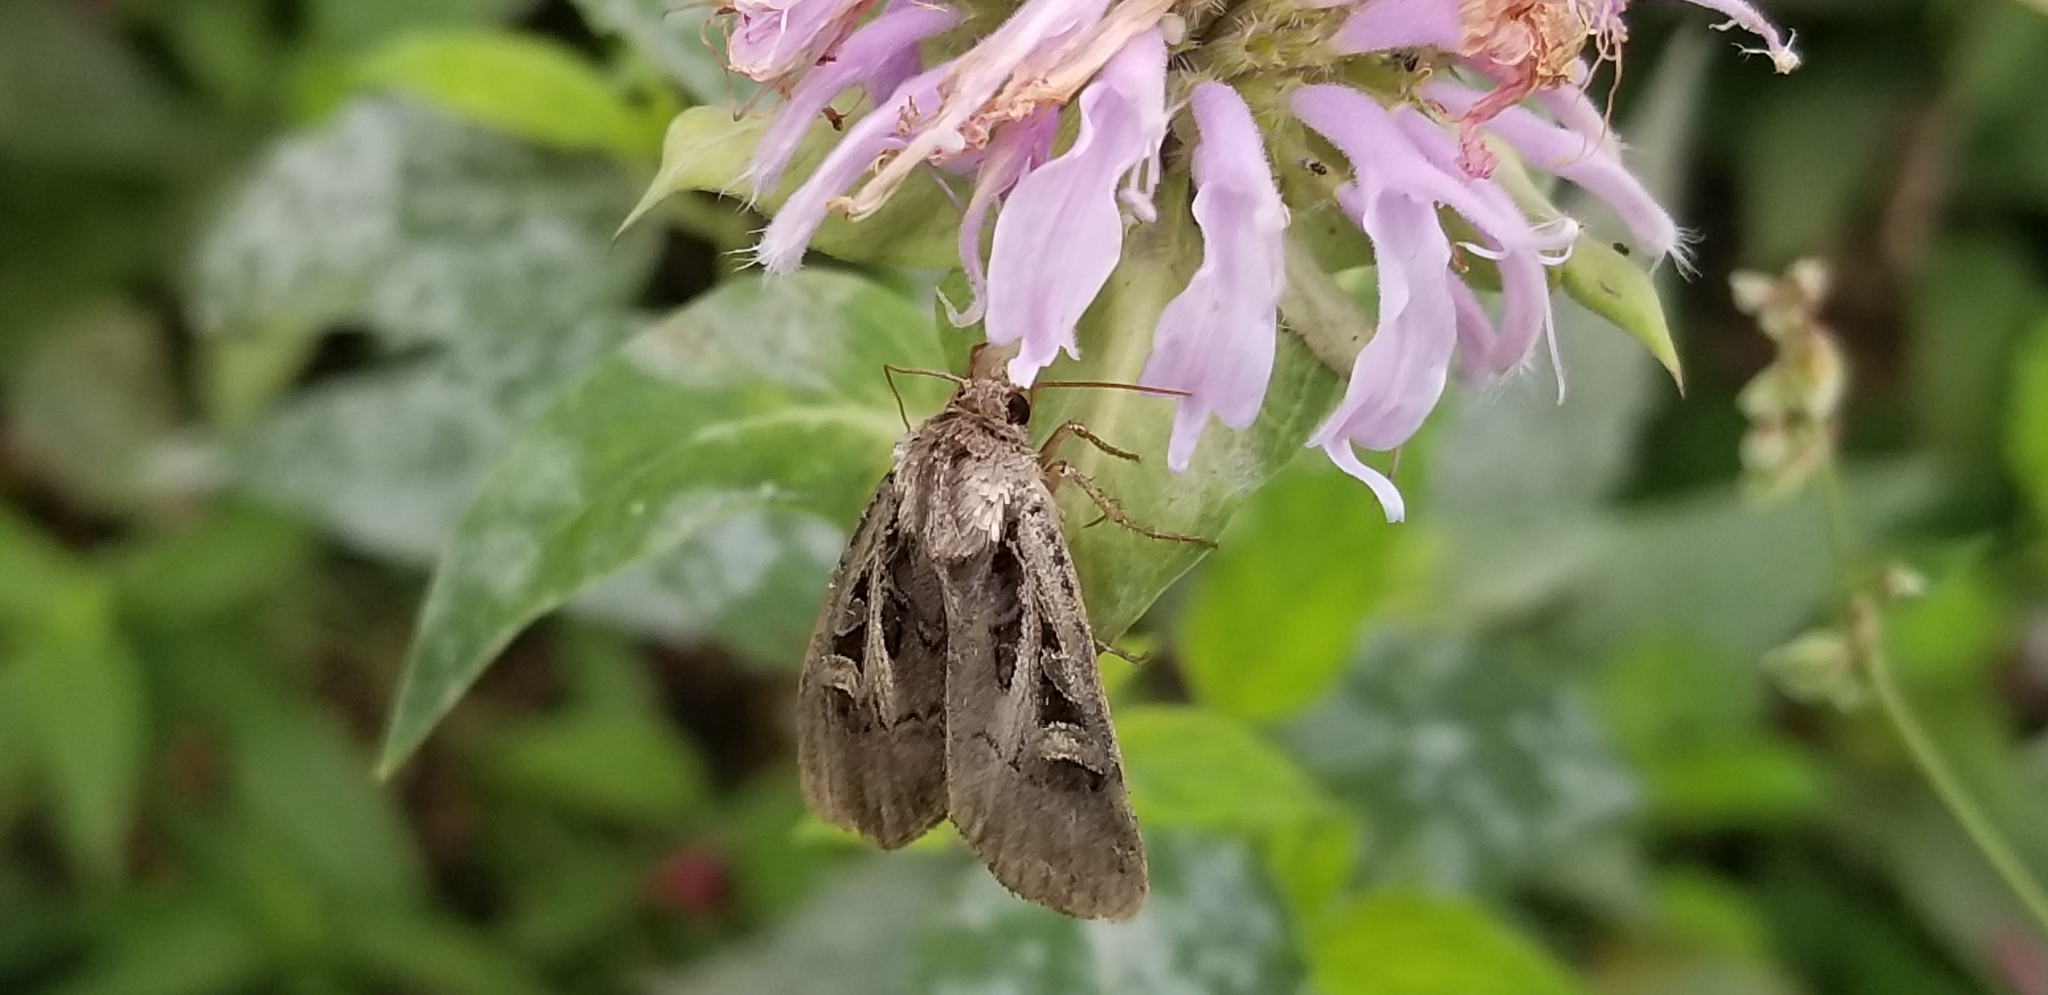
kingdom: Animalia
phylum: Arthropoda
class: Insecta
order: Lepidoptera
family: Noctuidae
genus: Feltia
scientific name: Feltia herilis
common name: Master's dart
